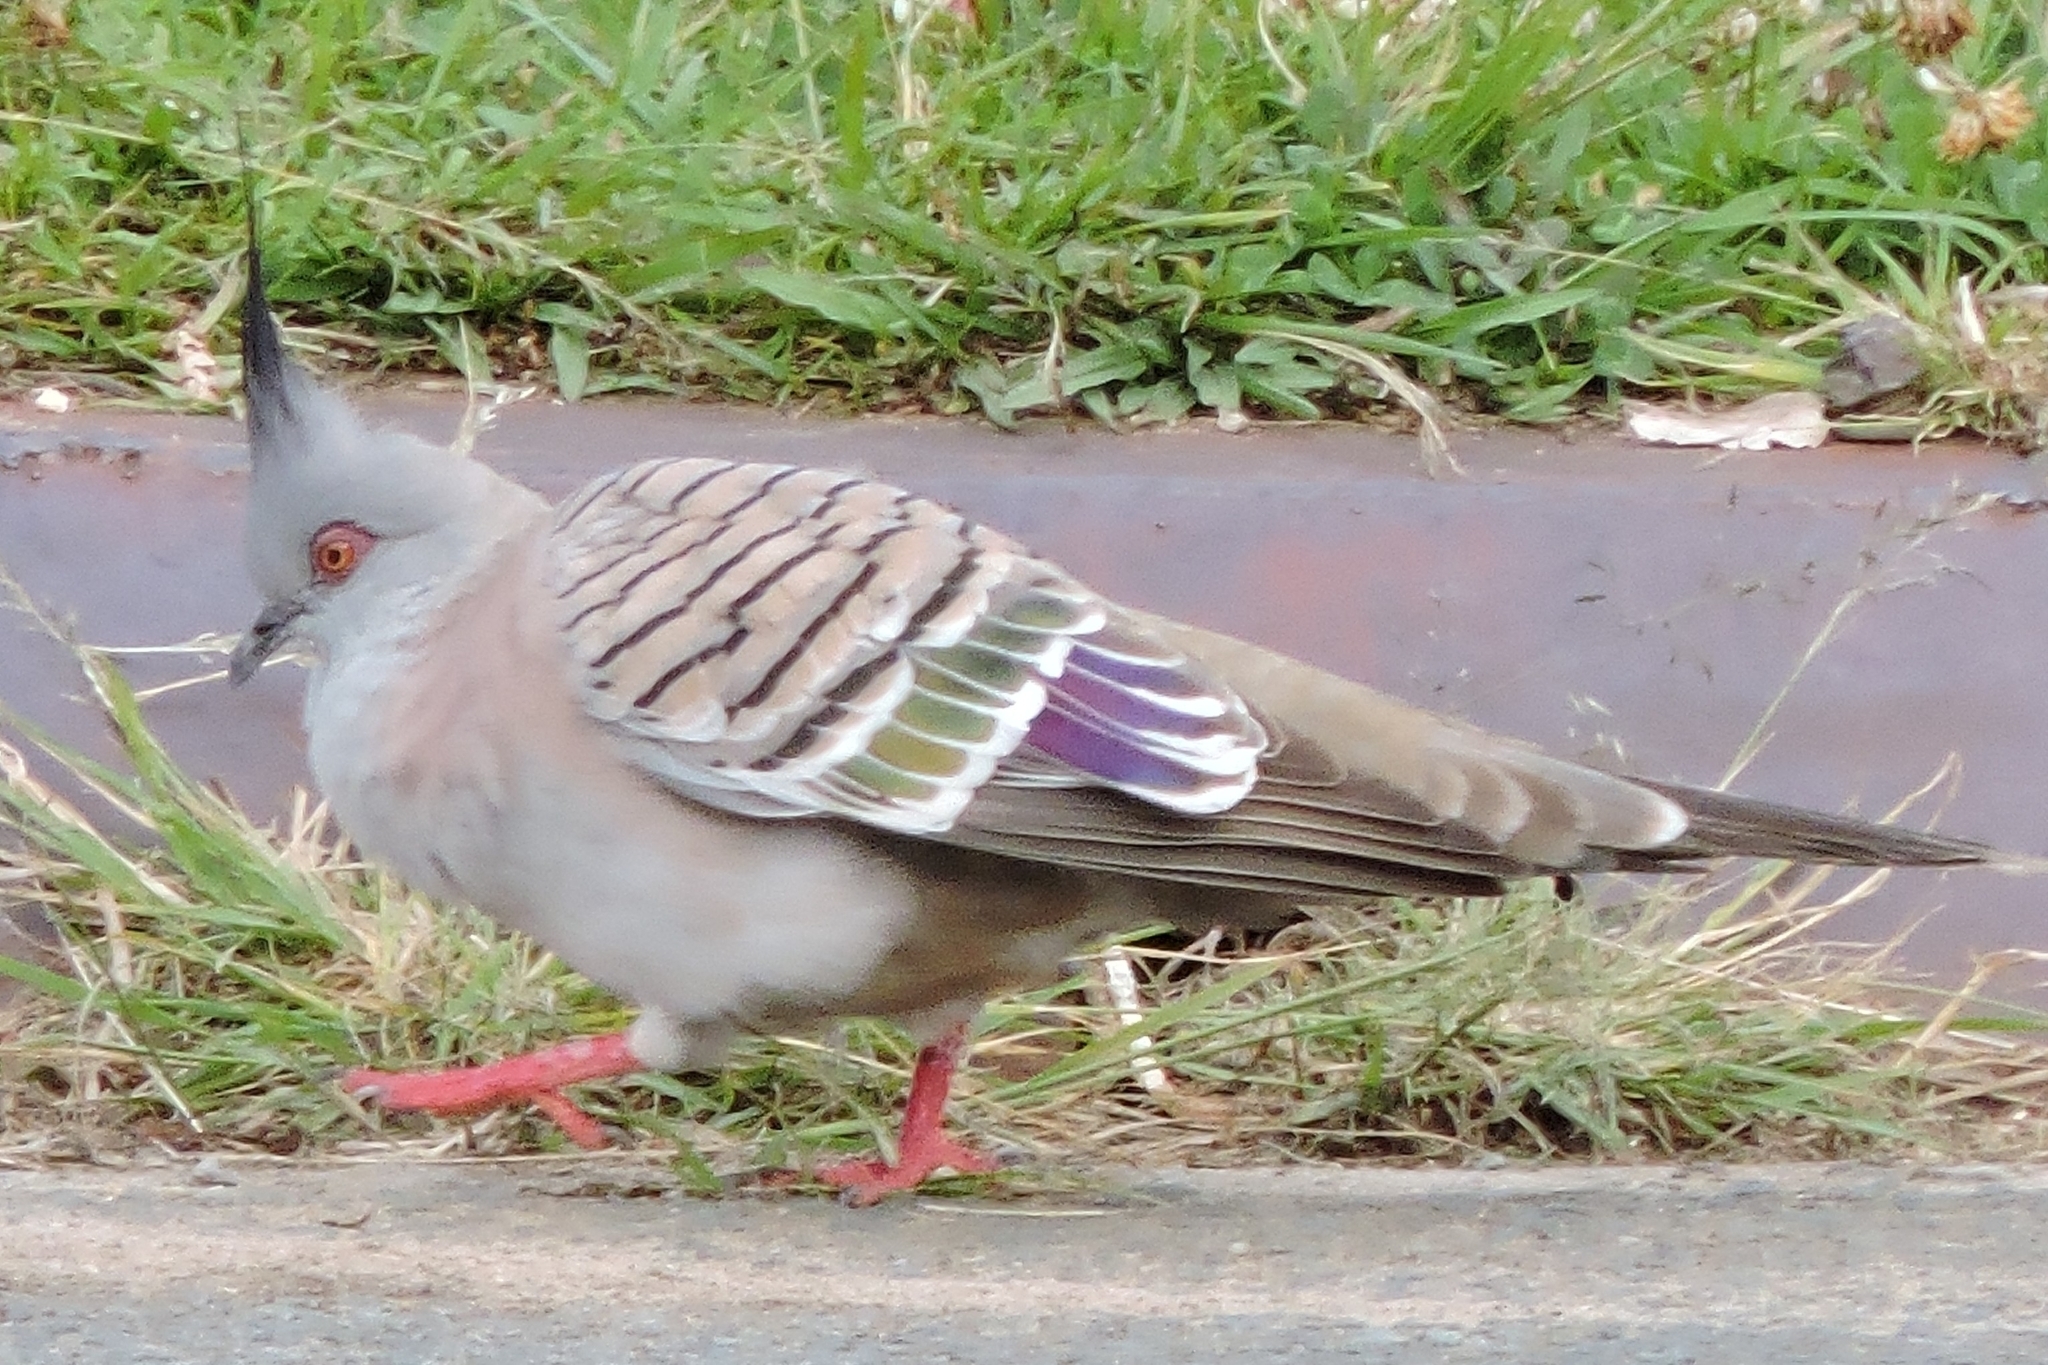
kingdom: Animalia
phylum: Chordata
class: Aves
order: Columbiformes
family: Columbidae
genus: Ocyphaps
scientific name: Ocyphaps lophotes
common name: Crested pigeon
